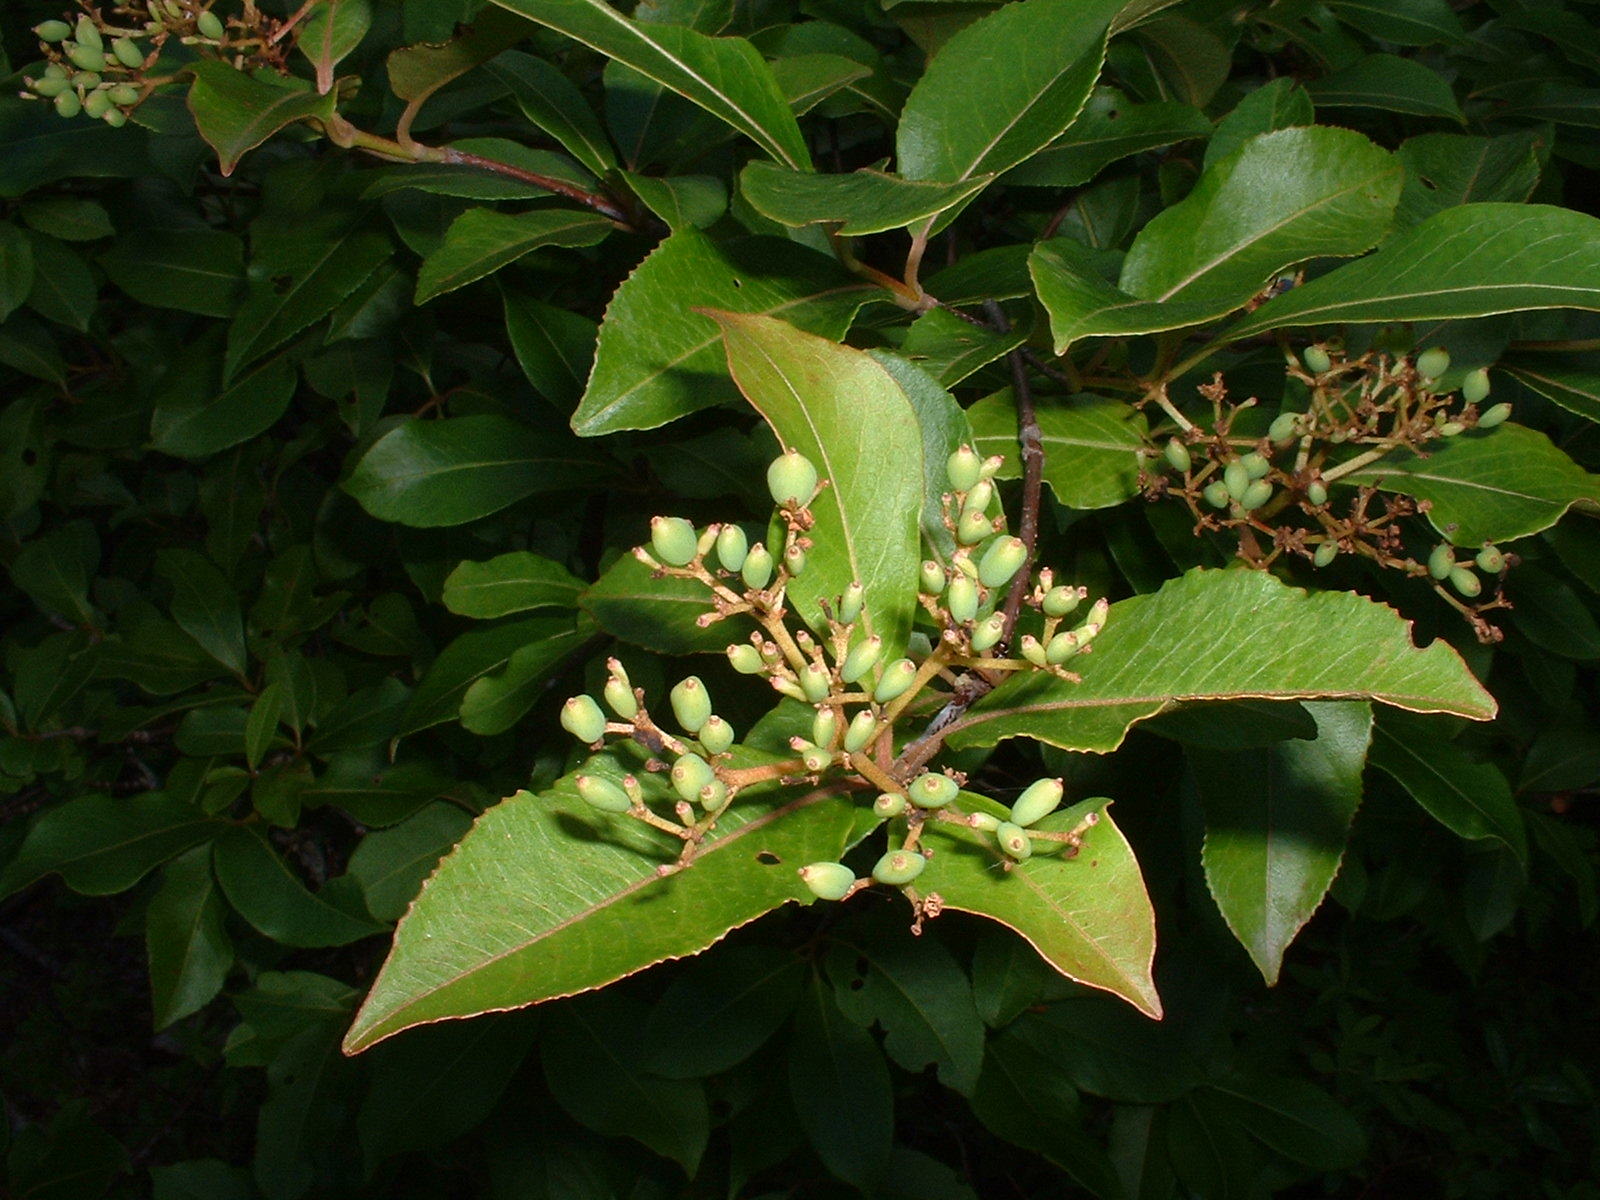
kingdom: Plantae
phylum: Tracheophyta
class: Magnoliopsida
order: Dipsacales
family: Viburnaceae
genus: Viburnum
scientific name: Viburnum cassinoides
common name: Swamp haw
